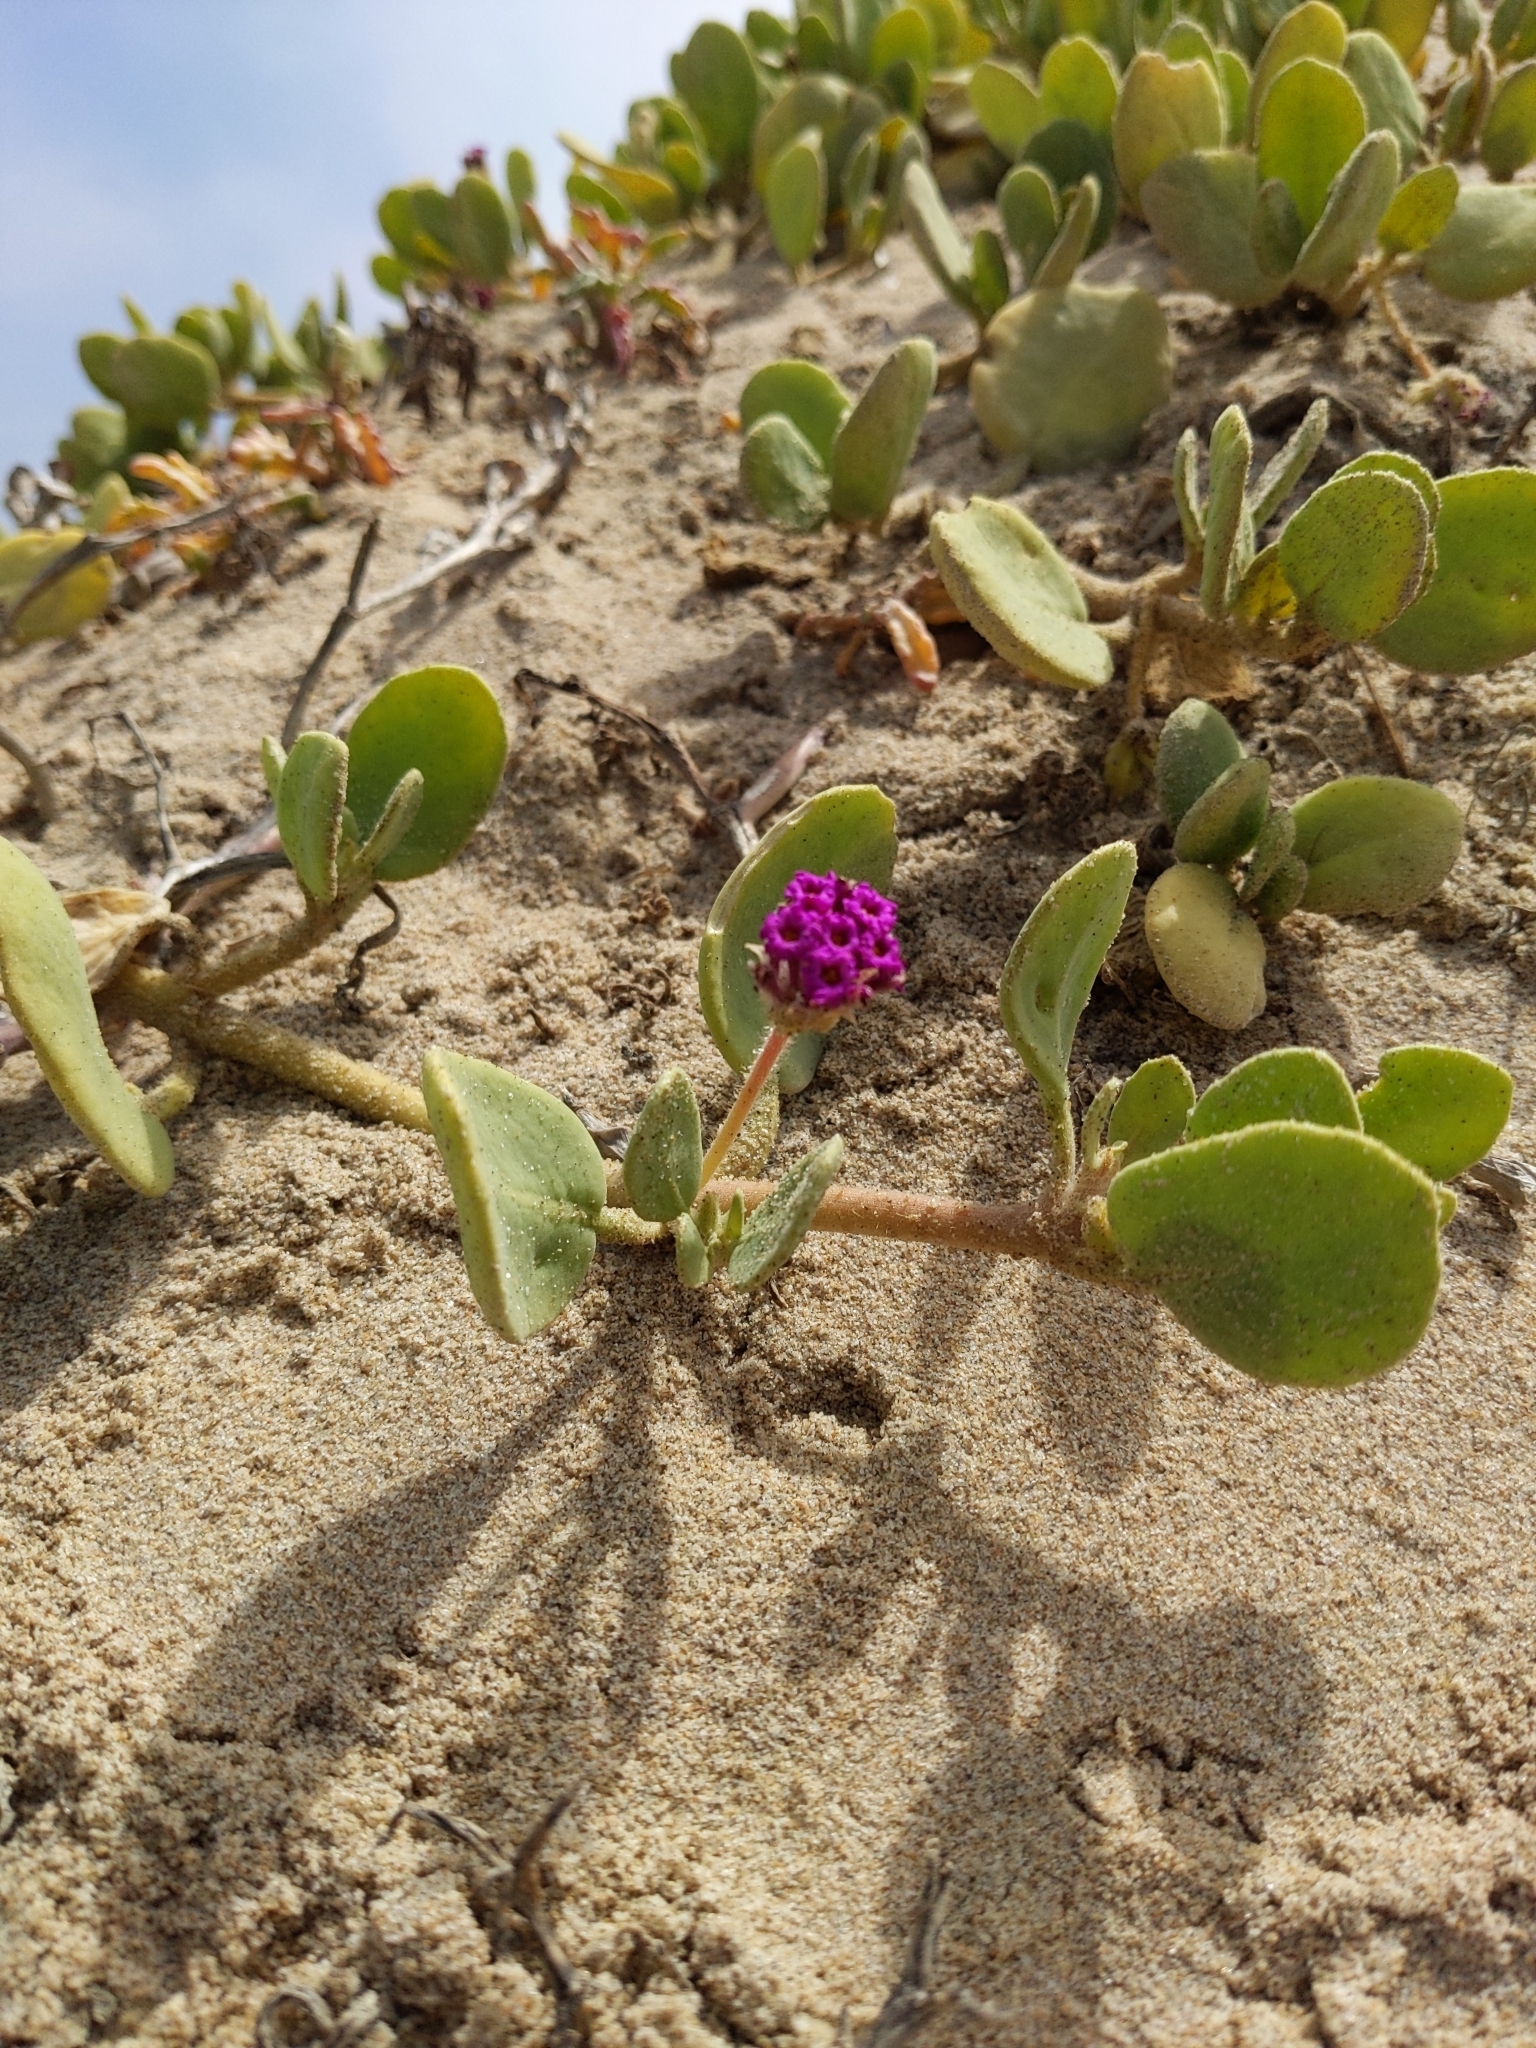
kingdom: Plantae
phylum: Tracheophyta
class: Magnoliopsida
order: Caryophyllales
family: Nyctaginaceae
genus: Abronia
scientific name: Abronia maritima
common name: Red sand-verbena
